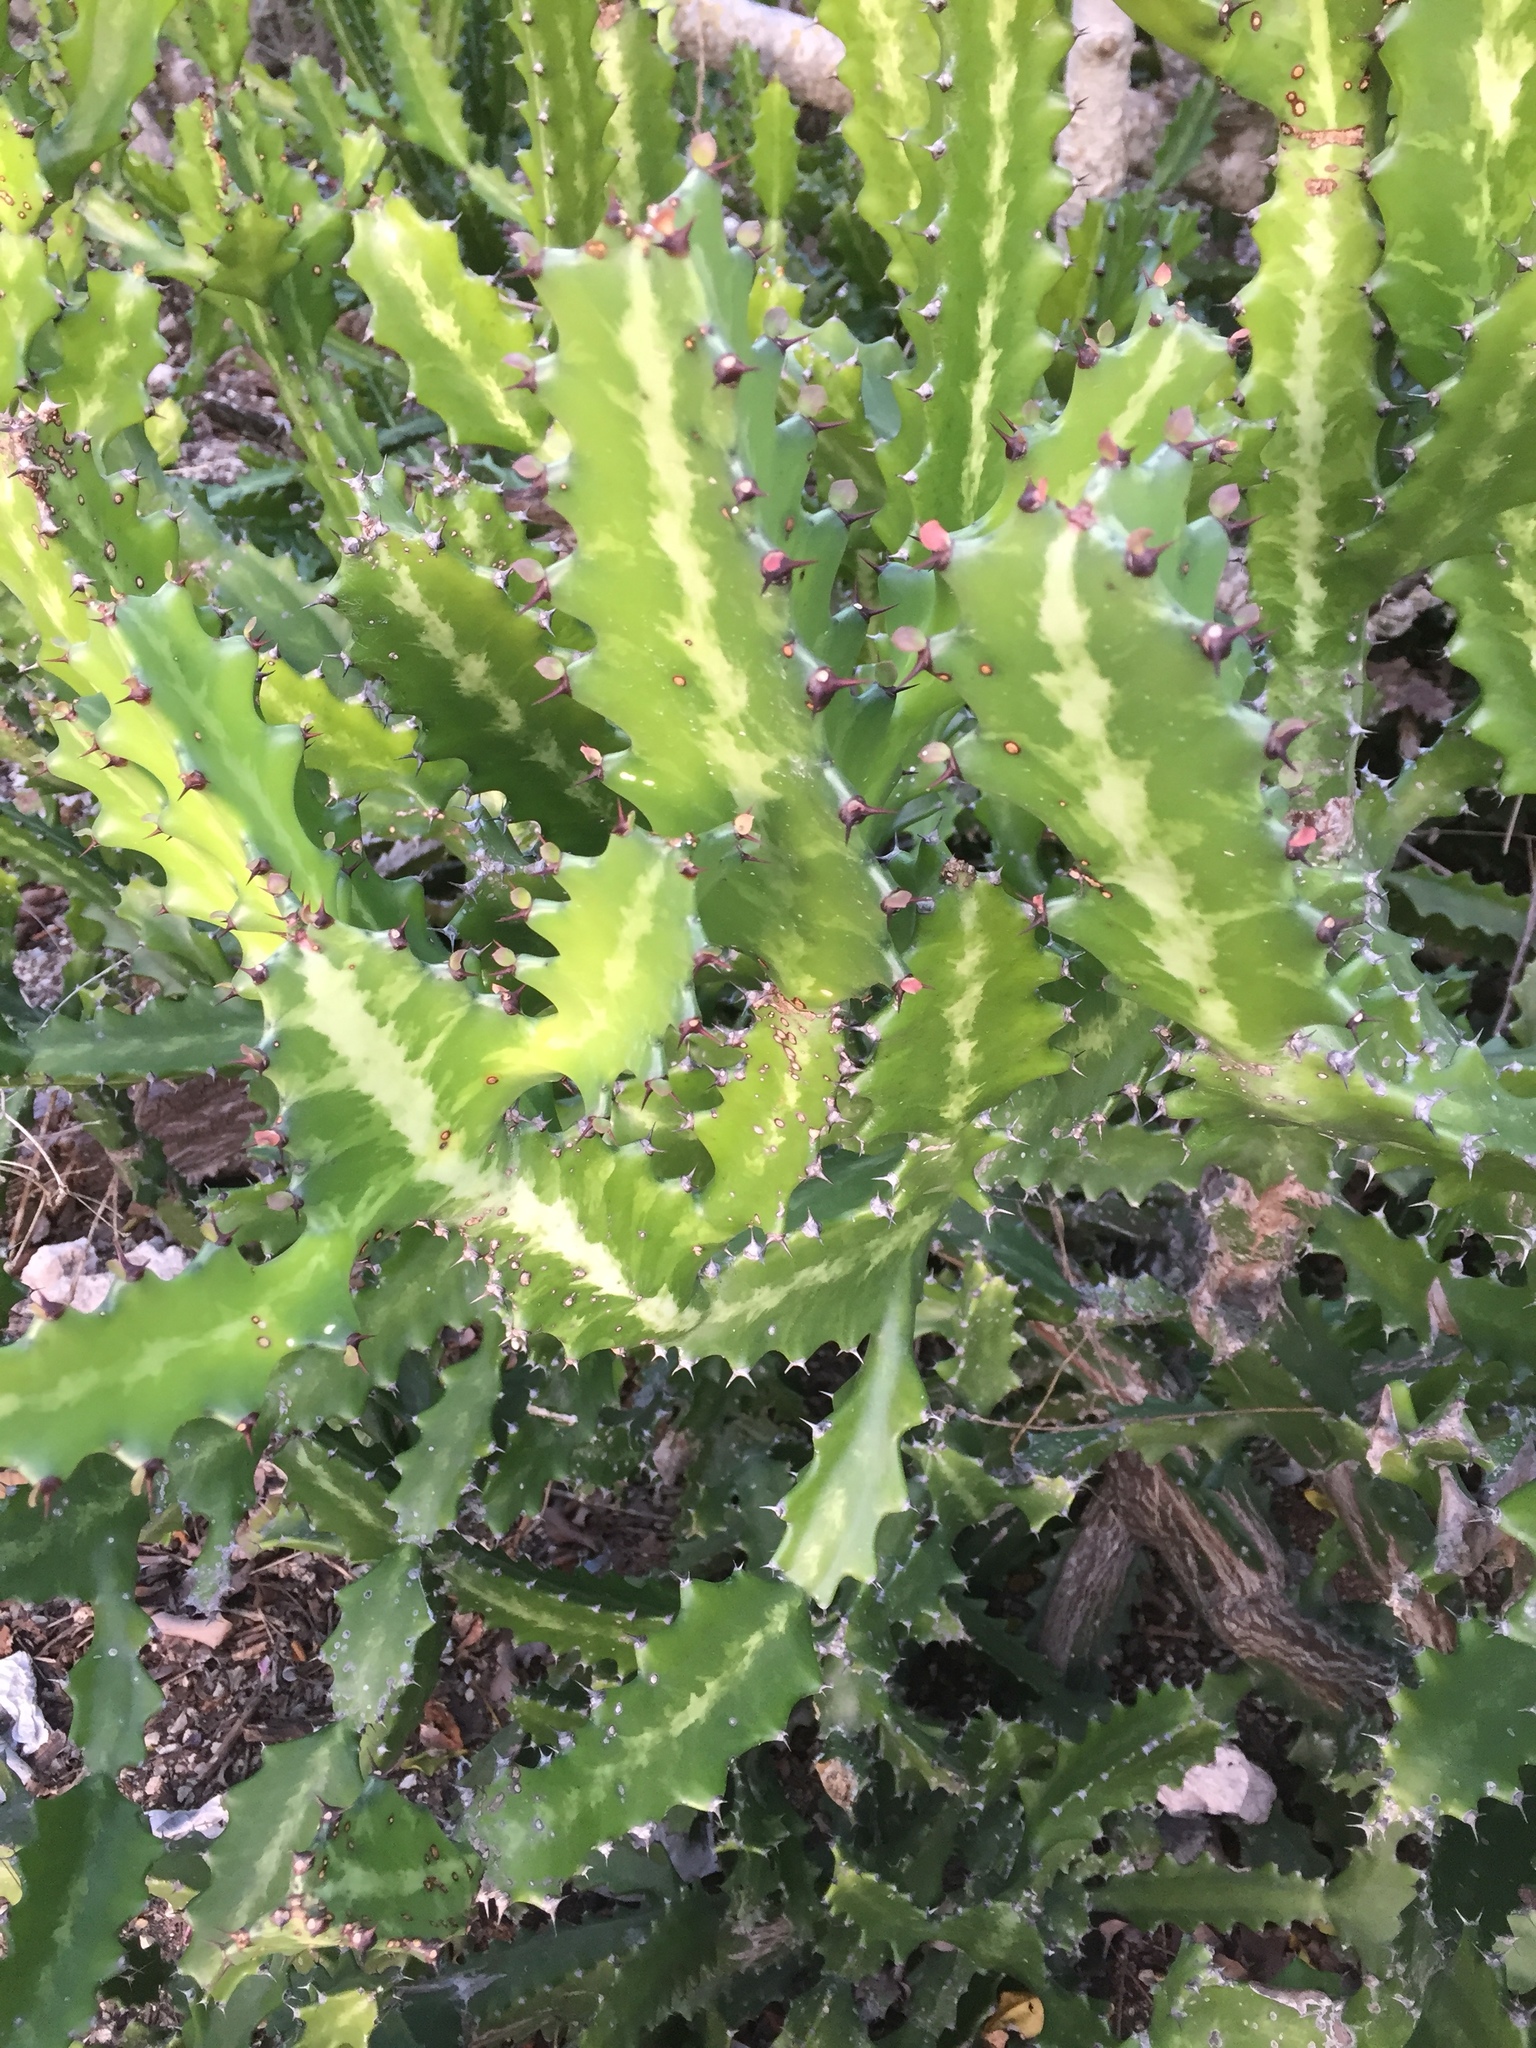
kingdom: Plantae
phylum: Tracheophyta
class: Magnoliopsida
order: Malpighiales
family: Euphorbiaceae
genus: Euphorbia
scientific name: Euphorbia lactea
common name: Mottled spurge
